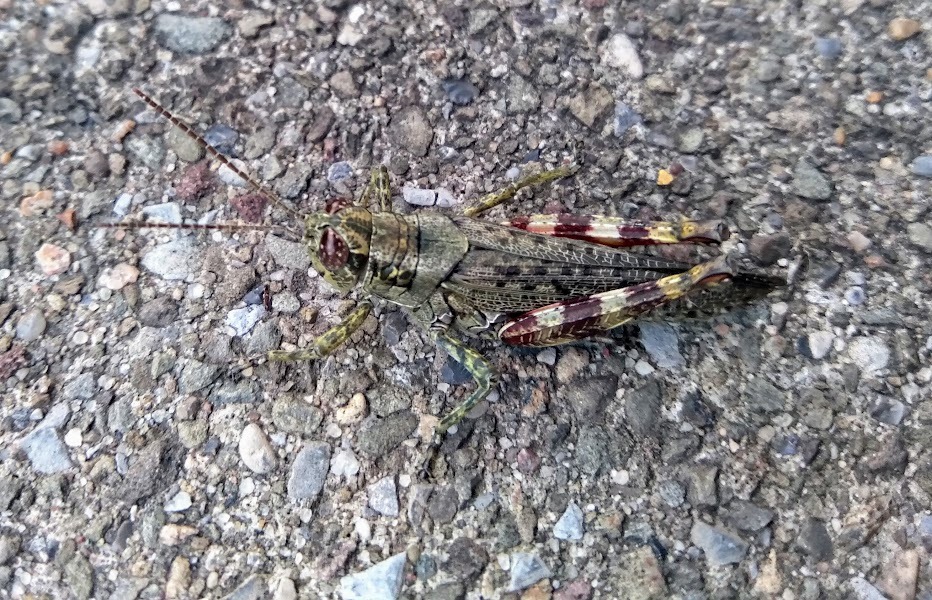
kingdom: Animalia
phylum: Arthropoda
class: Insecta
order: Orthoptera
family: Acrididae
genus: Melanoplus
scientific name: Melanoplus punctulatus
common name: Pine-tree spur-throat grasshopper
